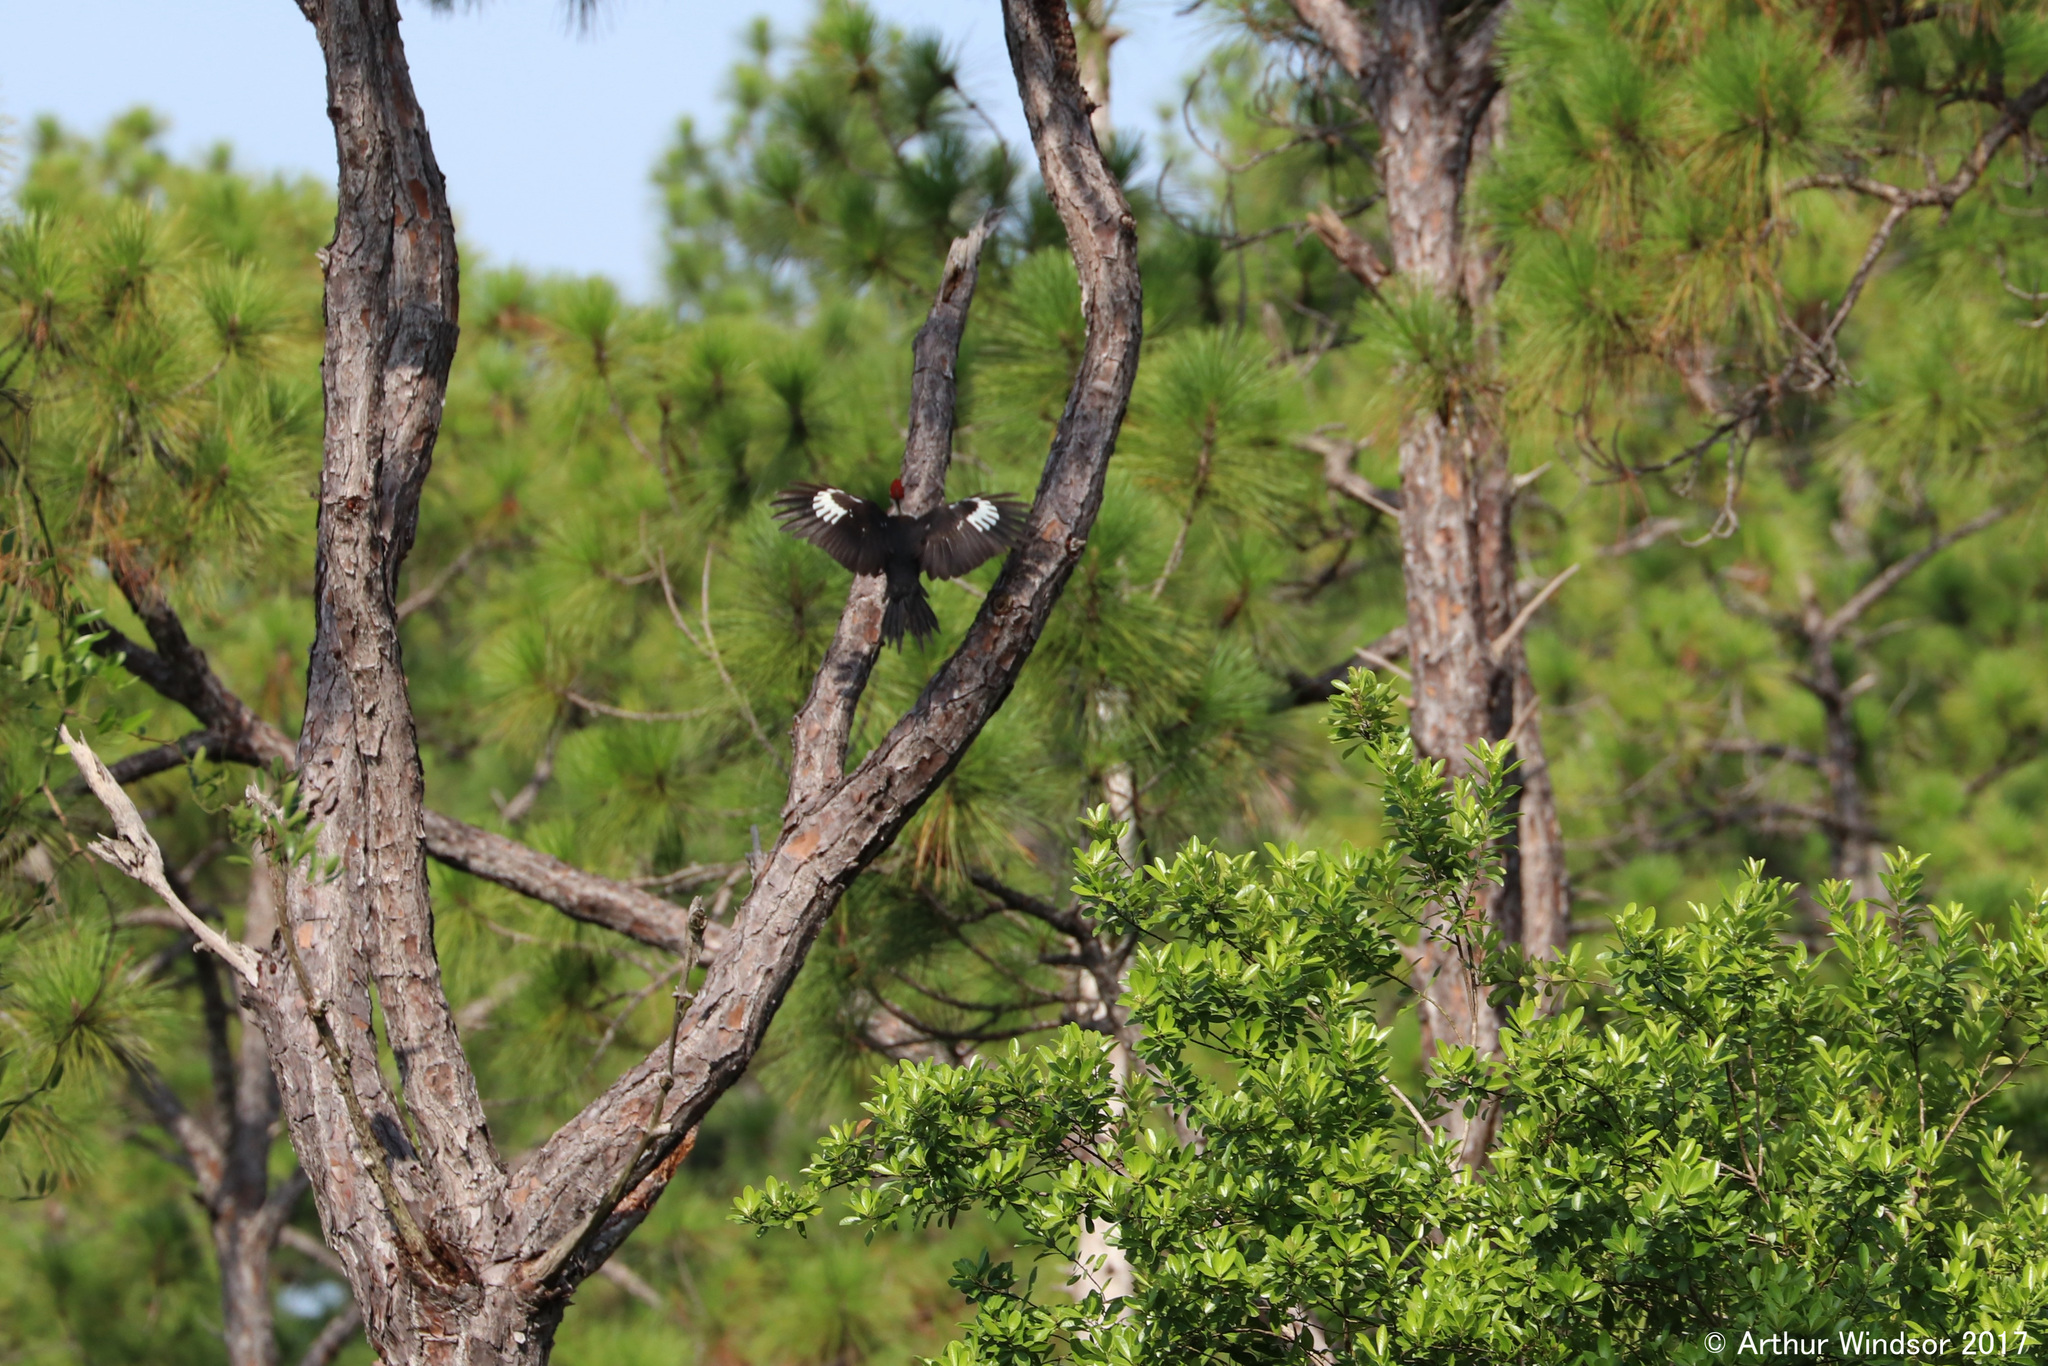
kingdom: Animalia
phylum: Chordata
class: Aves
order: Piciformes
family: Picidae
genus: Dryocopus
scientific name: Dryocopus pileatus
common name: Pileated woodpecker
